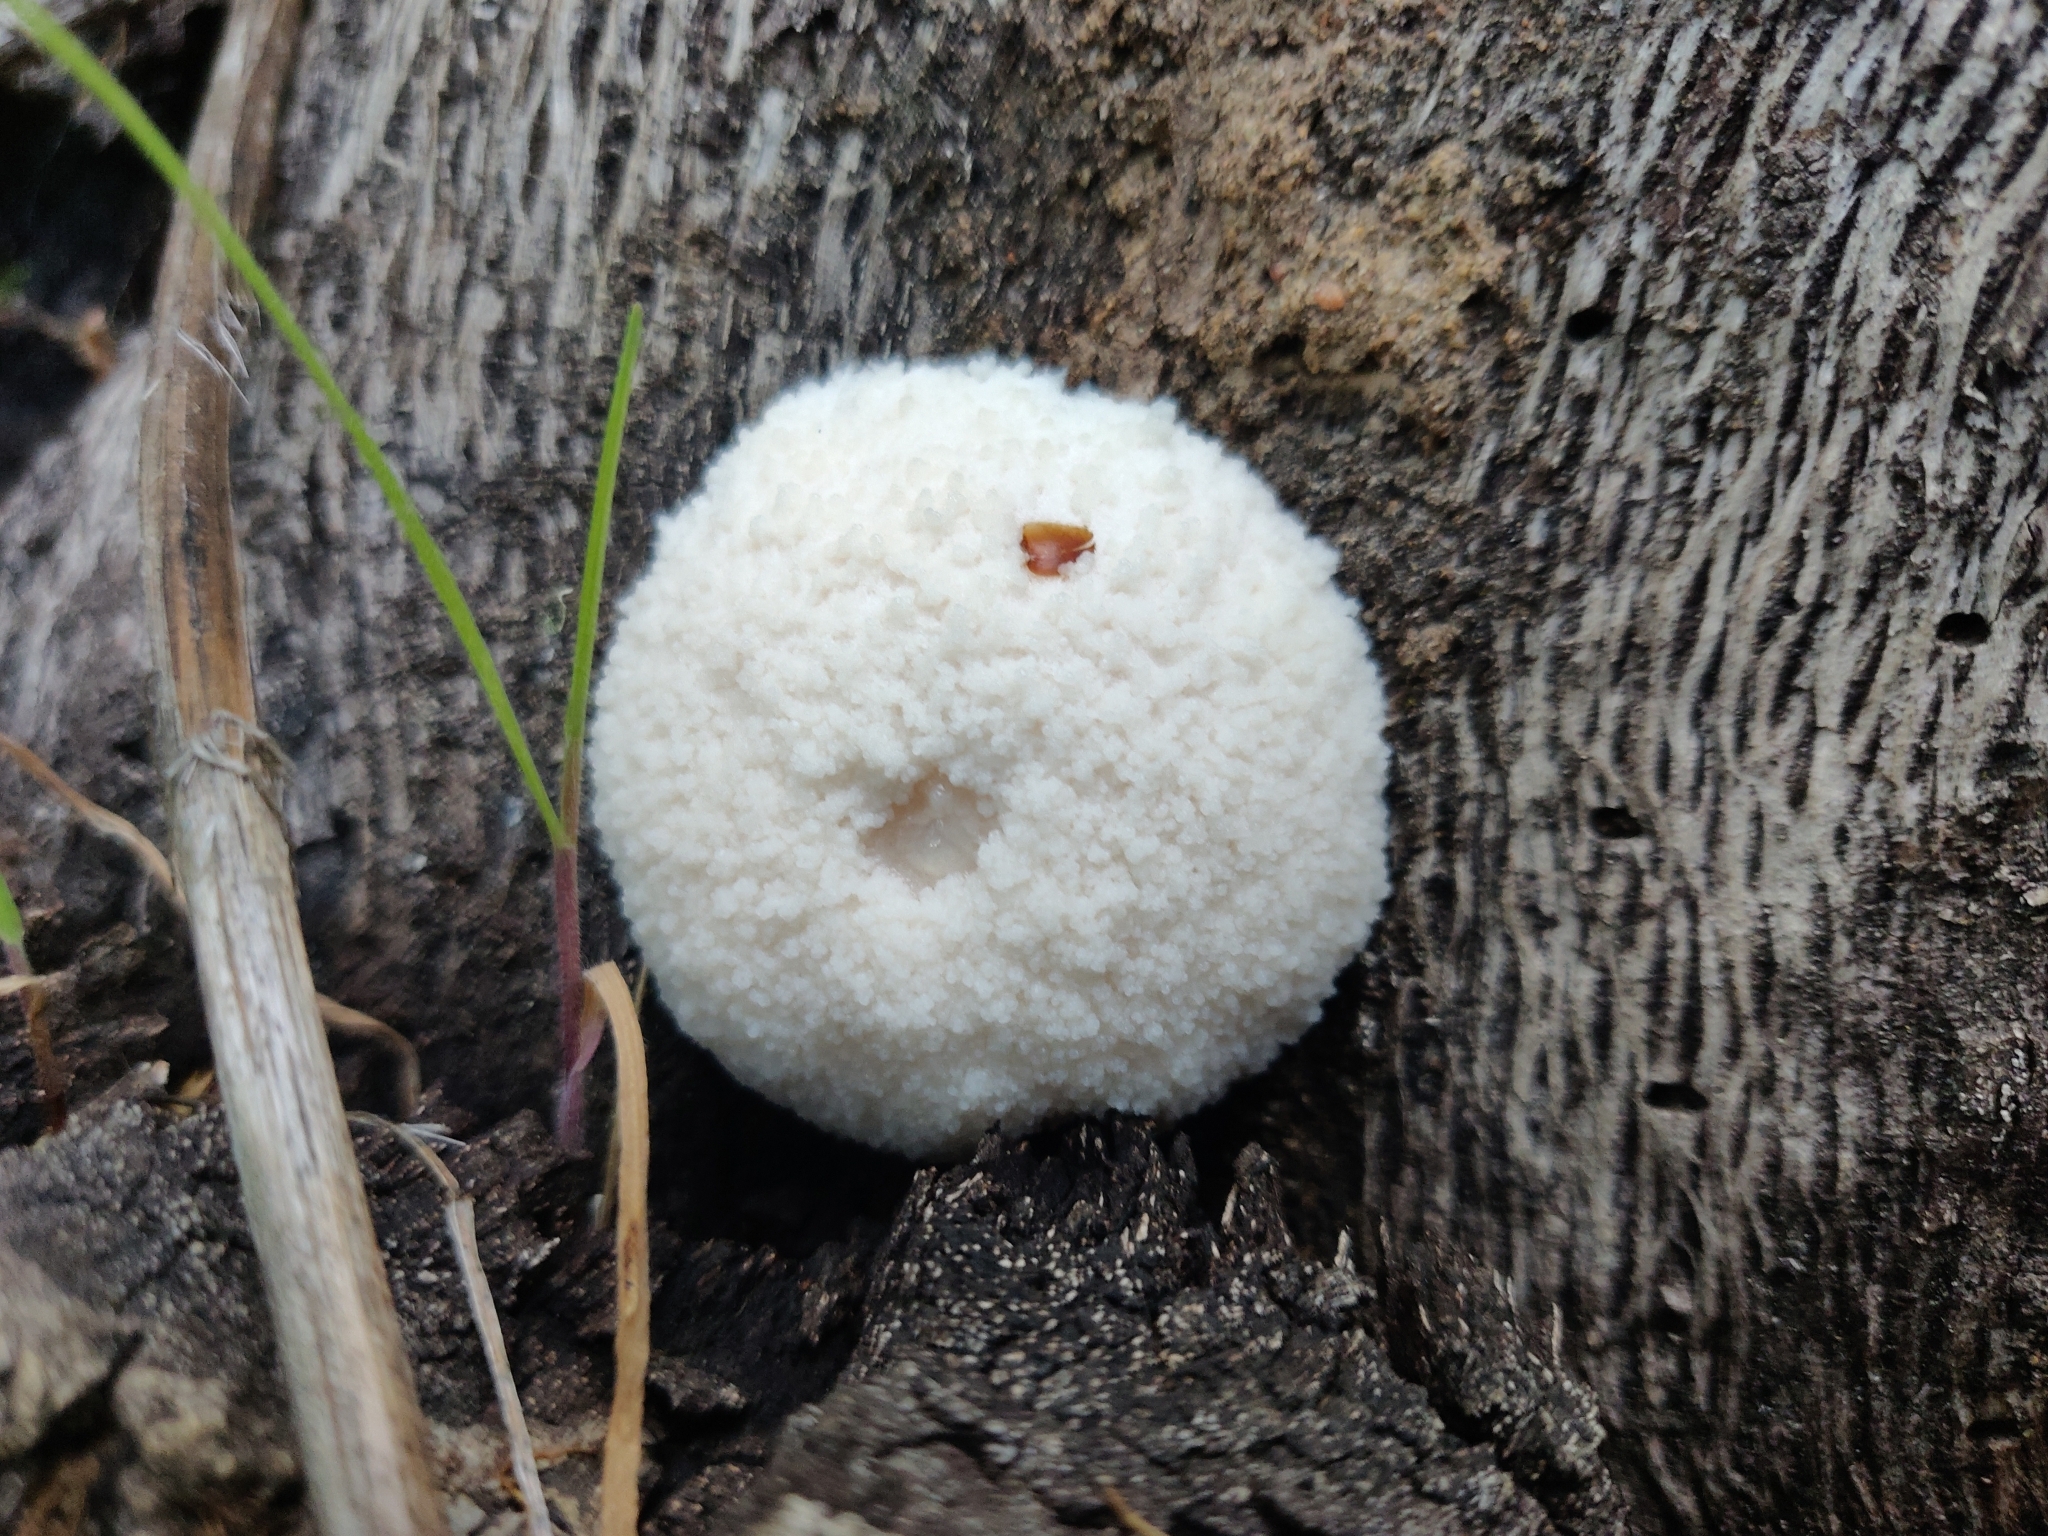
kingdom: Protozoa
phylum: Mycetozoa
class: Myxomycetes
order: Cribrariales
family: Tubiferaceae
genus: Reticularia
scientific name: Reticularia lycoperdon
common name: False puffball
